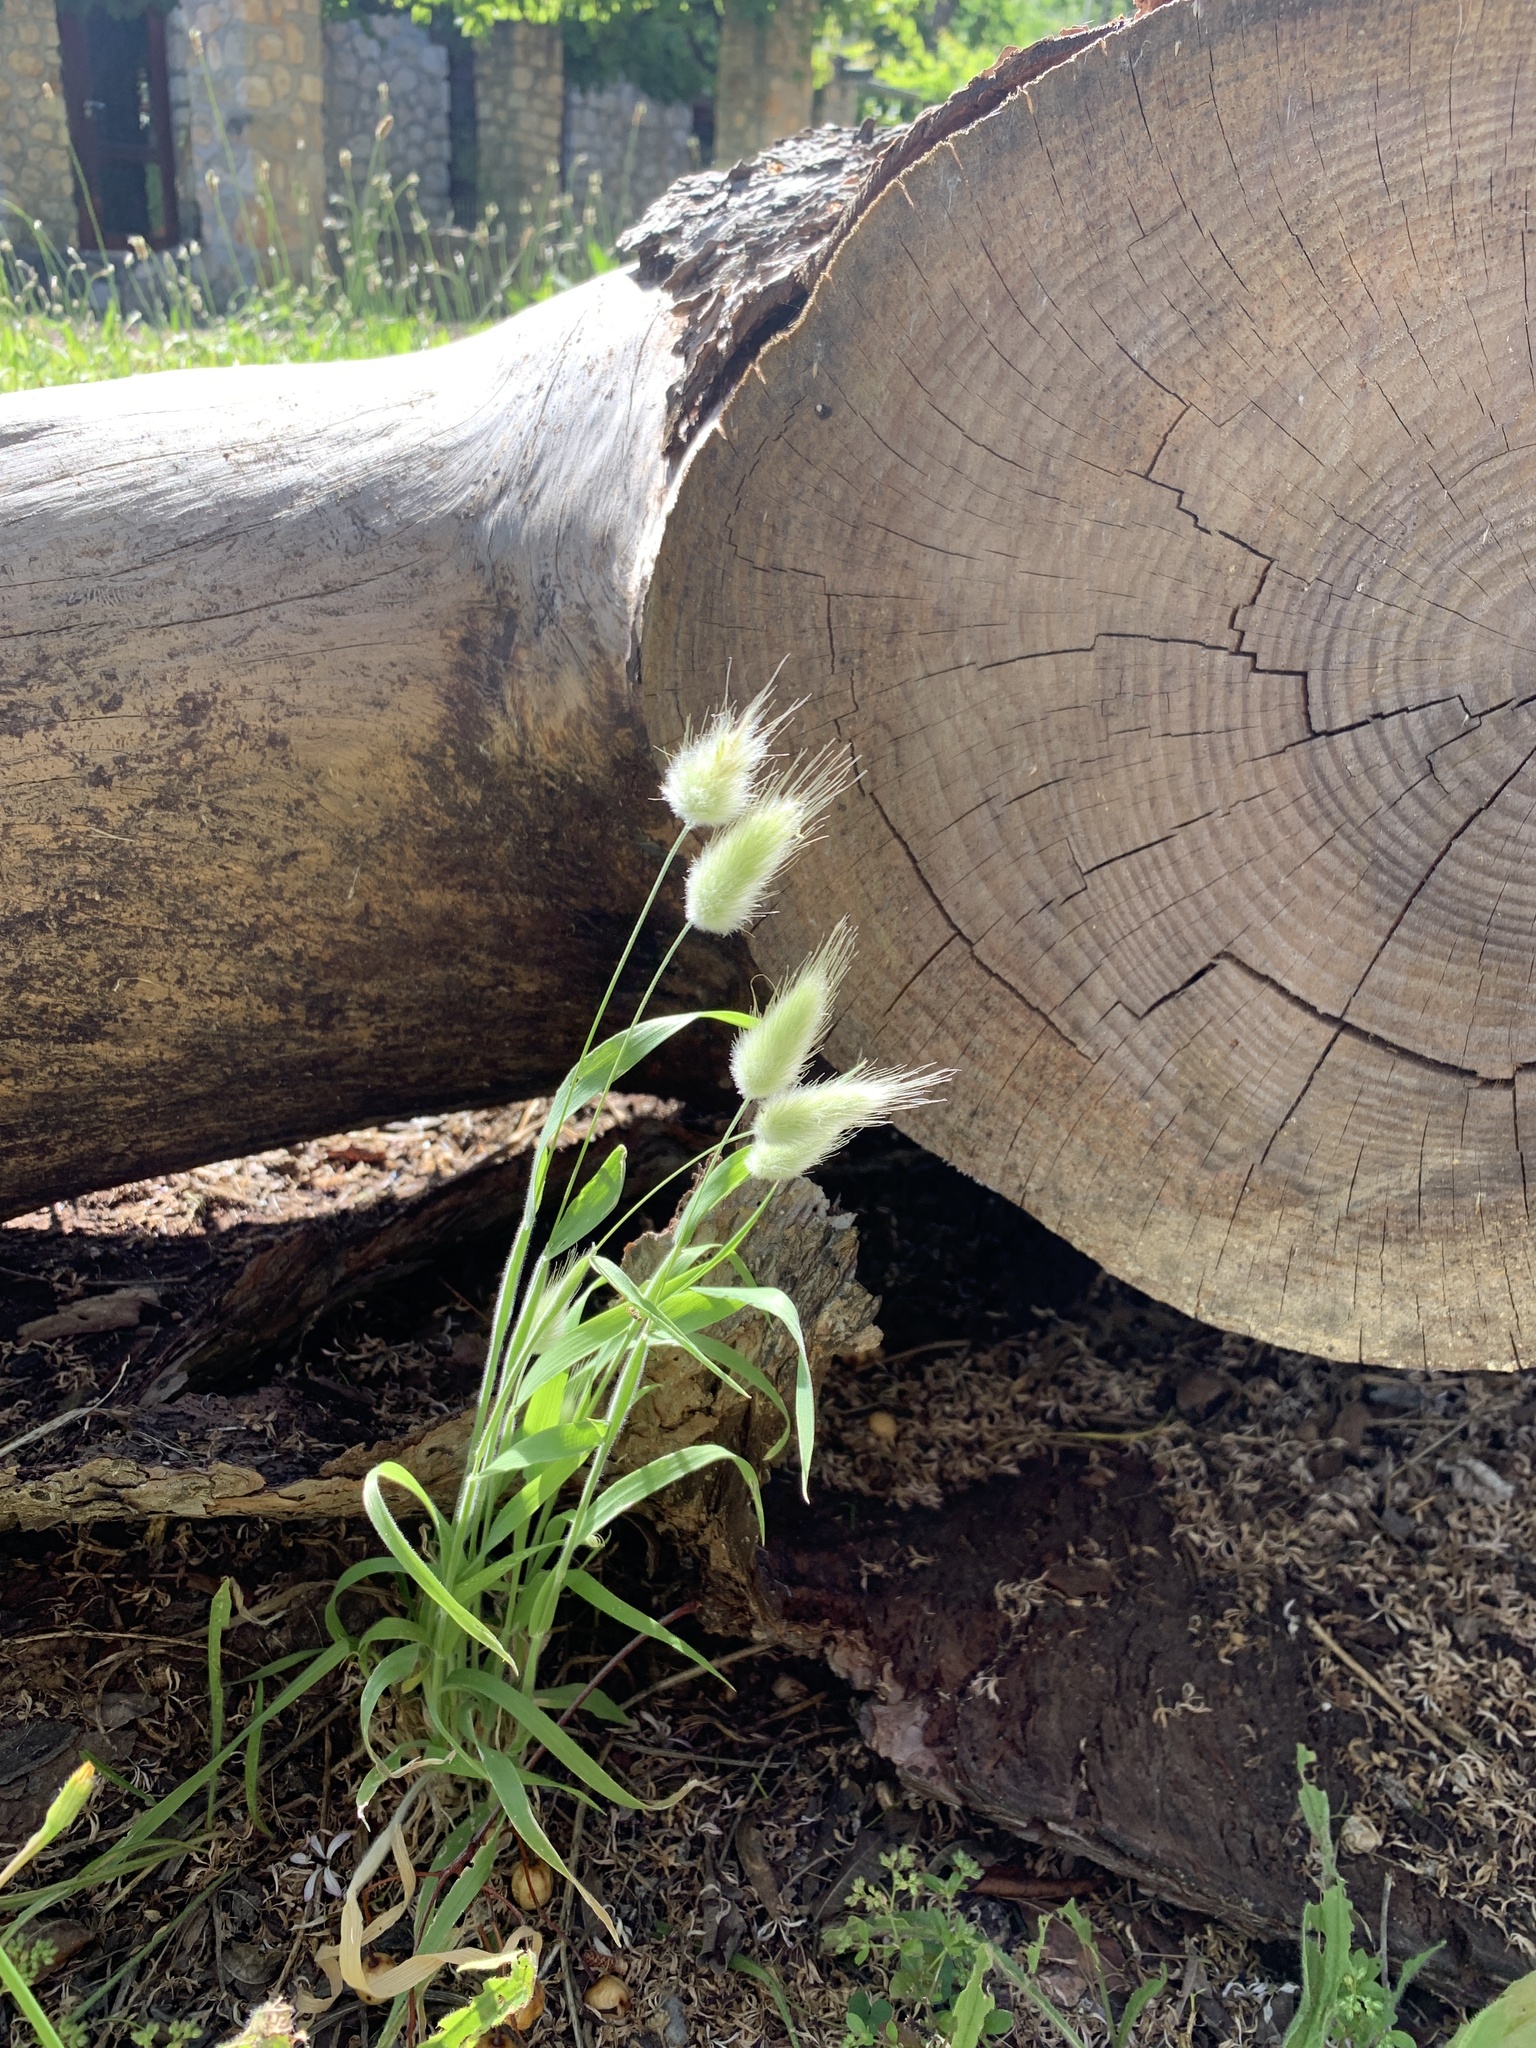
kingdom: Plantae
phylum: Tracheophyta
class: Liliopsida
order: Poales
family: Poaceae
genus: Lagurus
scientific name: Lagurus ovatus
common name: Hare's-tail
